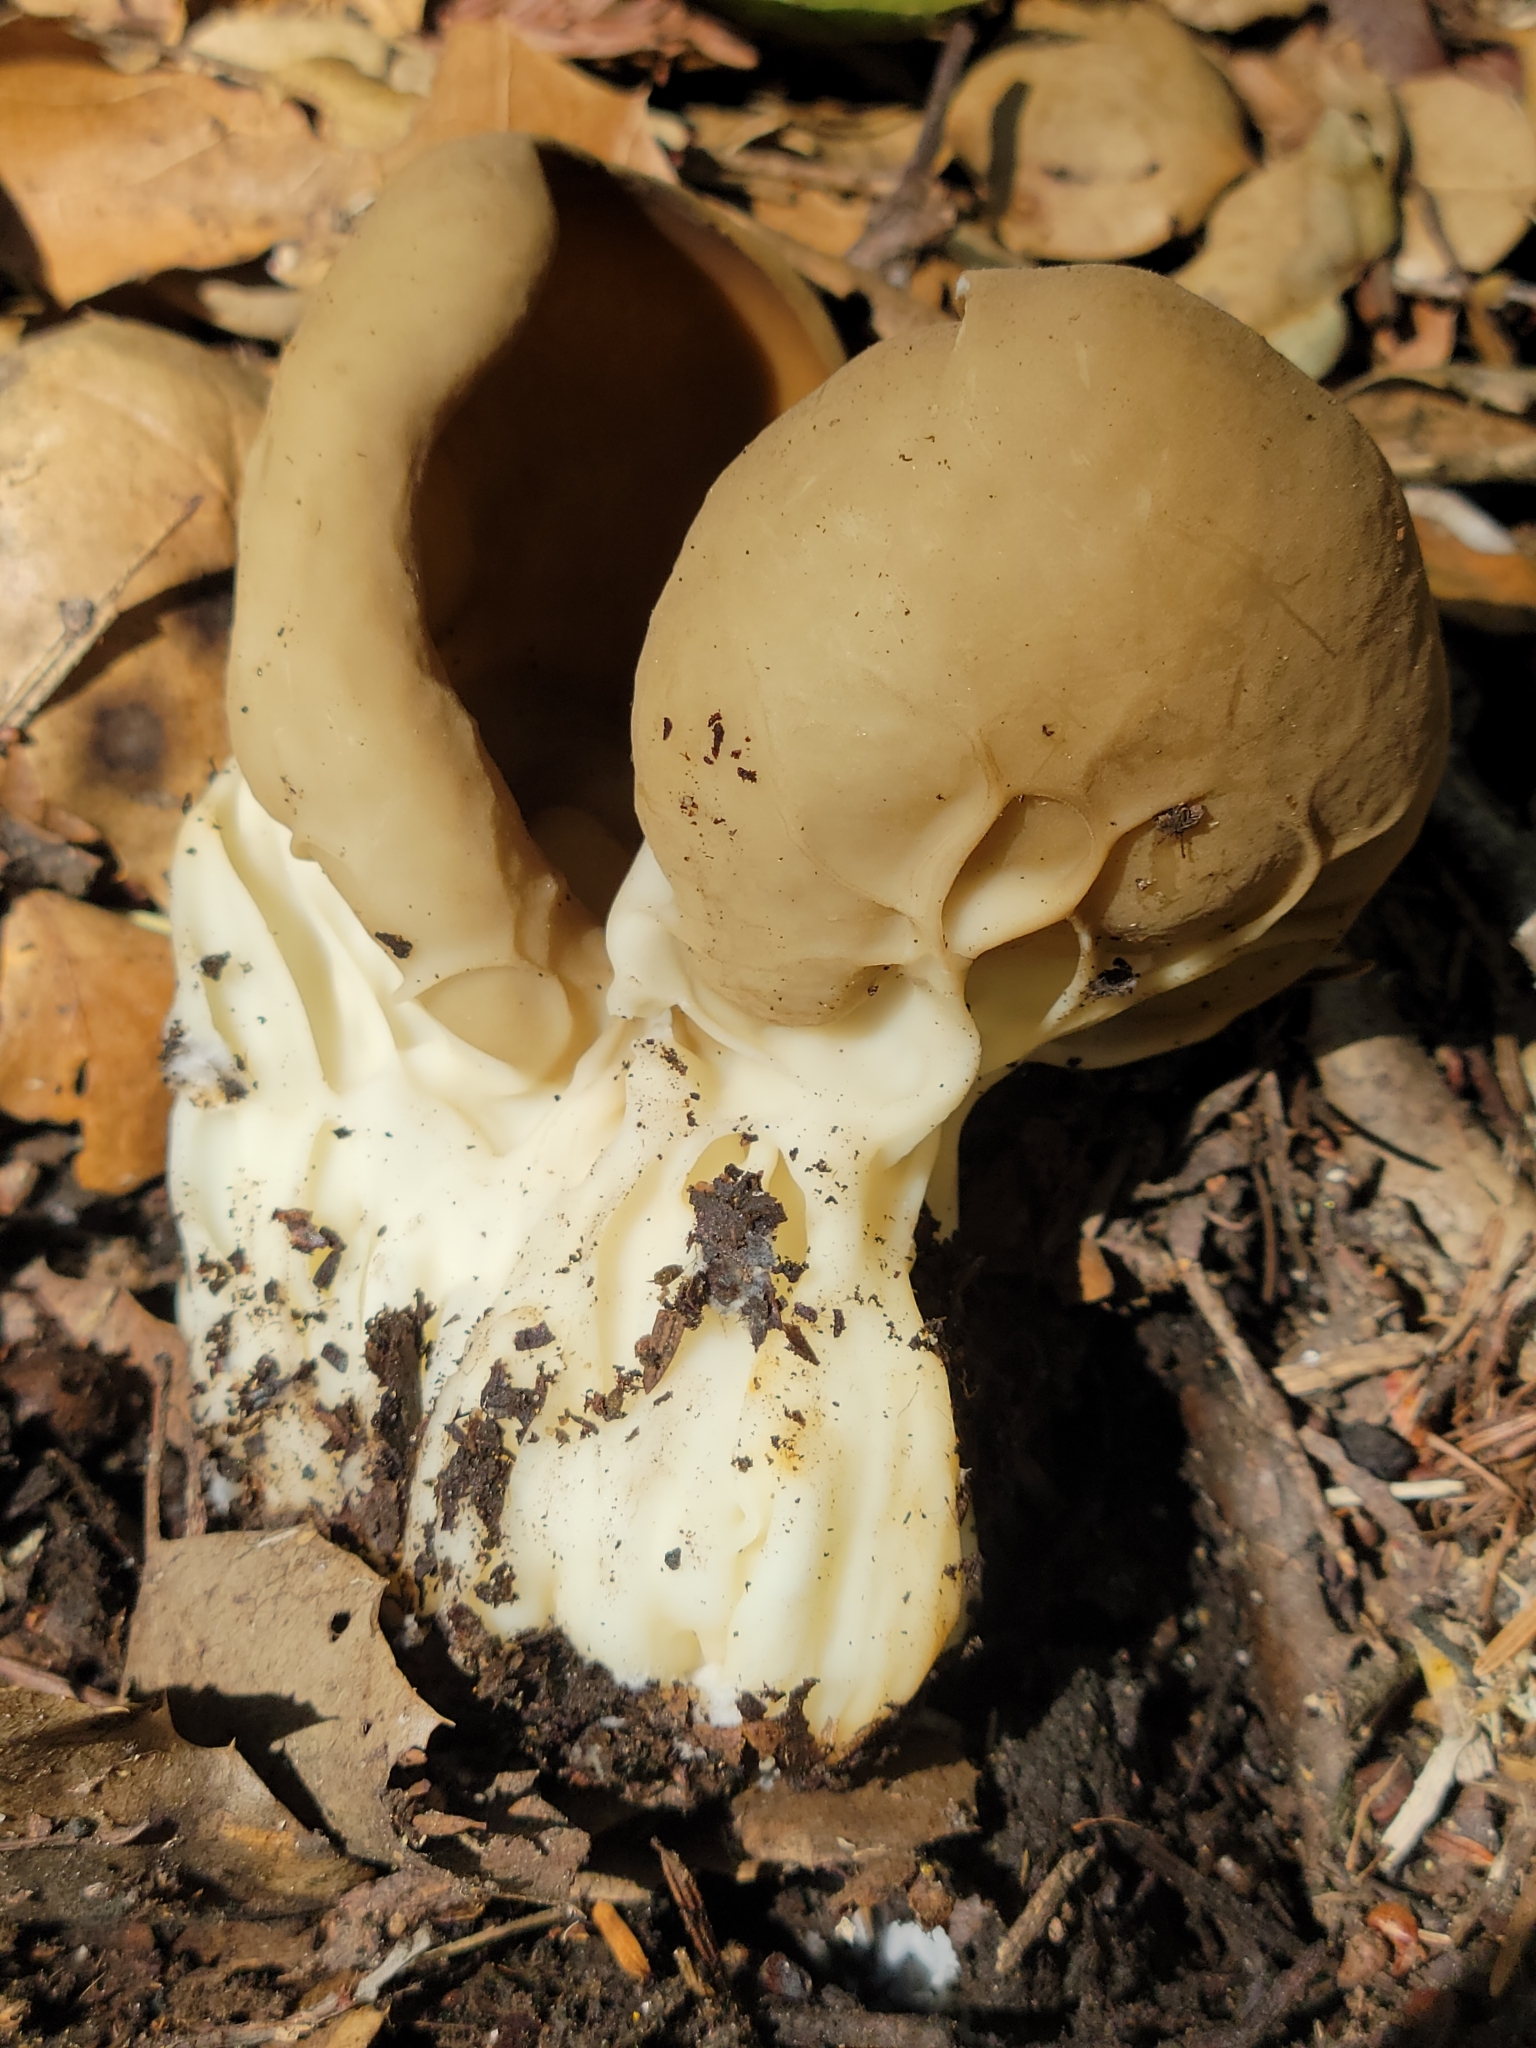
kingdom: Fungi
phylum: Ascomycota
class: Pezizomycetes
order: Pezizales
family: Helvellaceae
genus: Helvella
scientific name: Helvella acetabulum
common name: Vinegar cup
